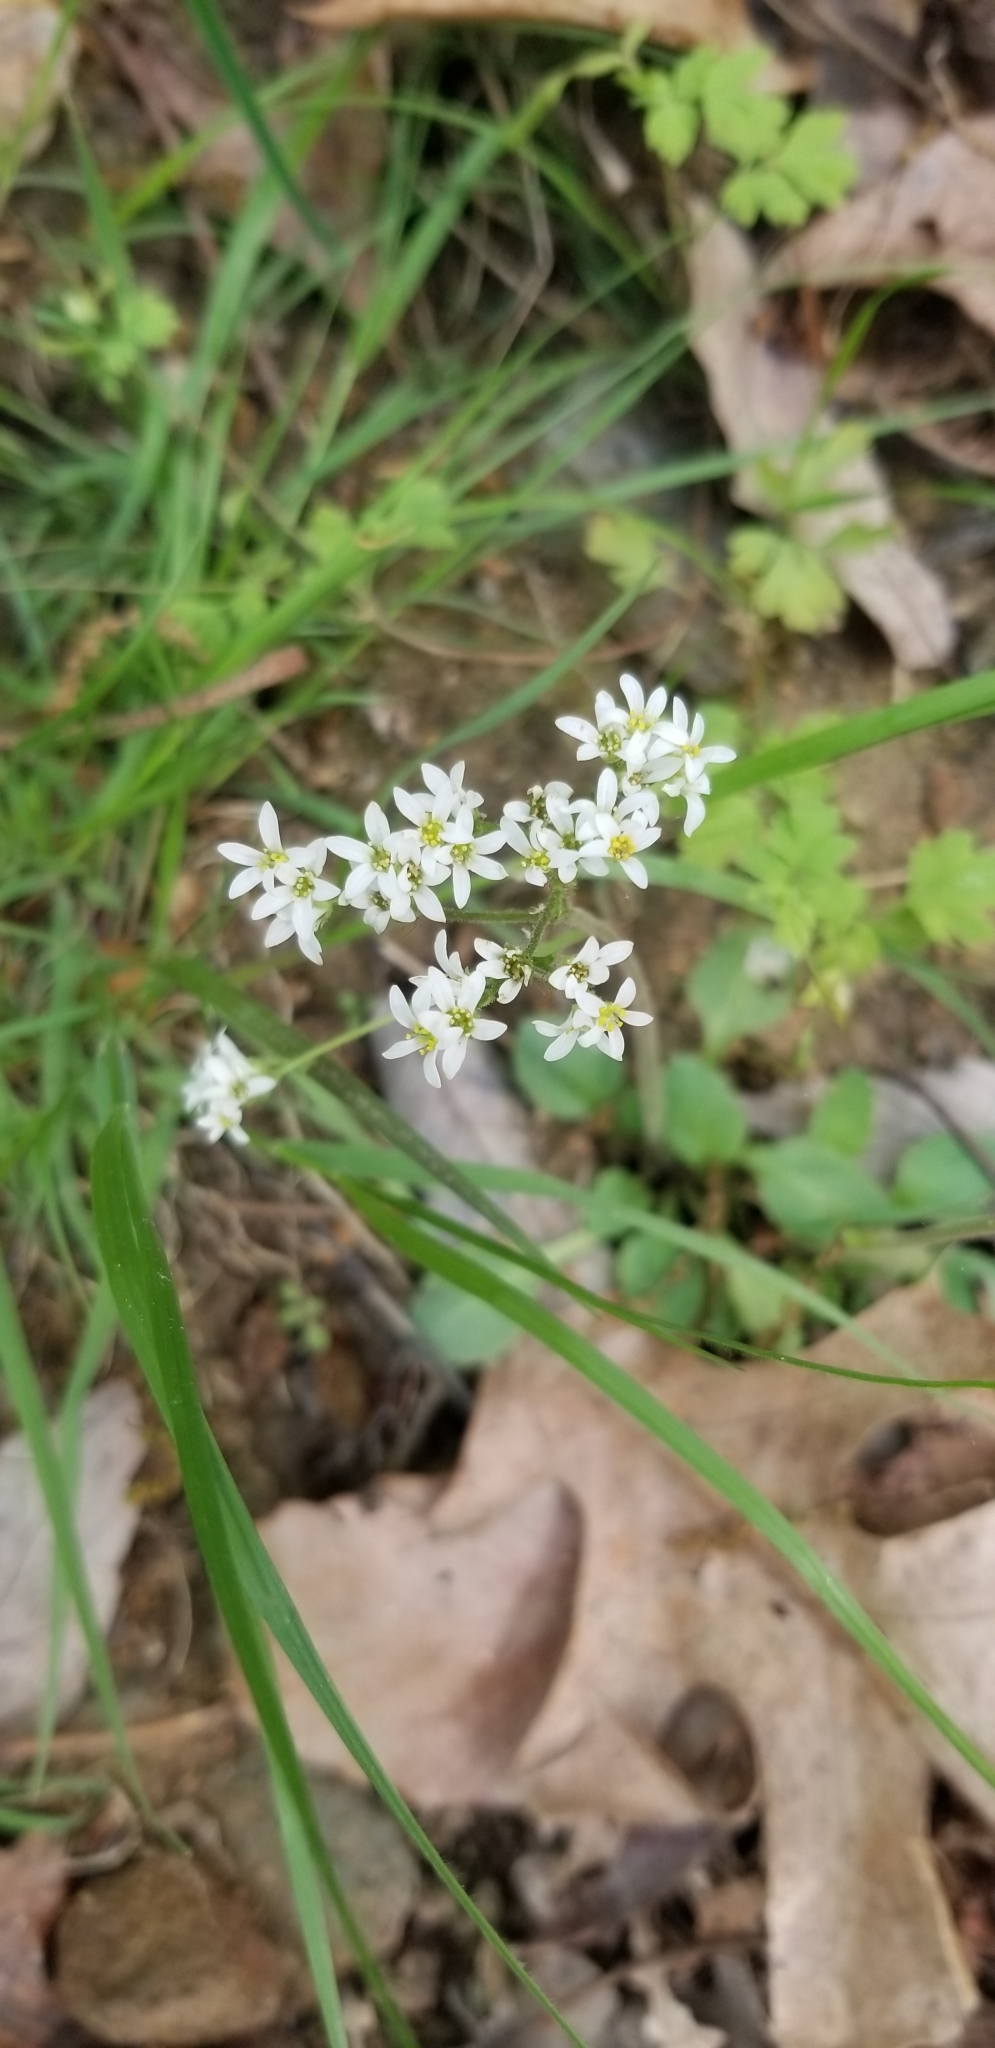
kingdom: Plantae
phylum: Tracheophyta
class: Magnoliopsida
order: Saxifragales
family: Saxifragaceae
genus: Micranthes
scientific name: Micranthes virginiensis
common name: Early saxifrage
